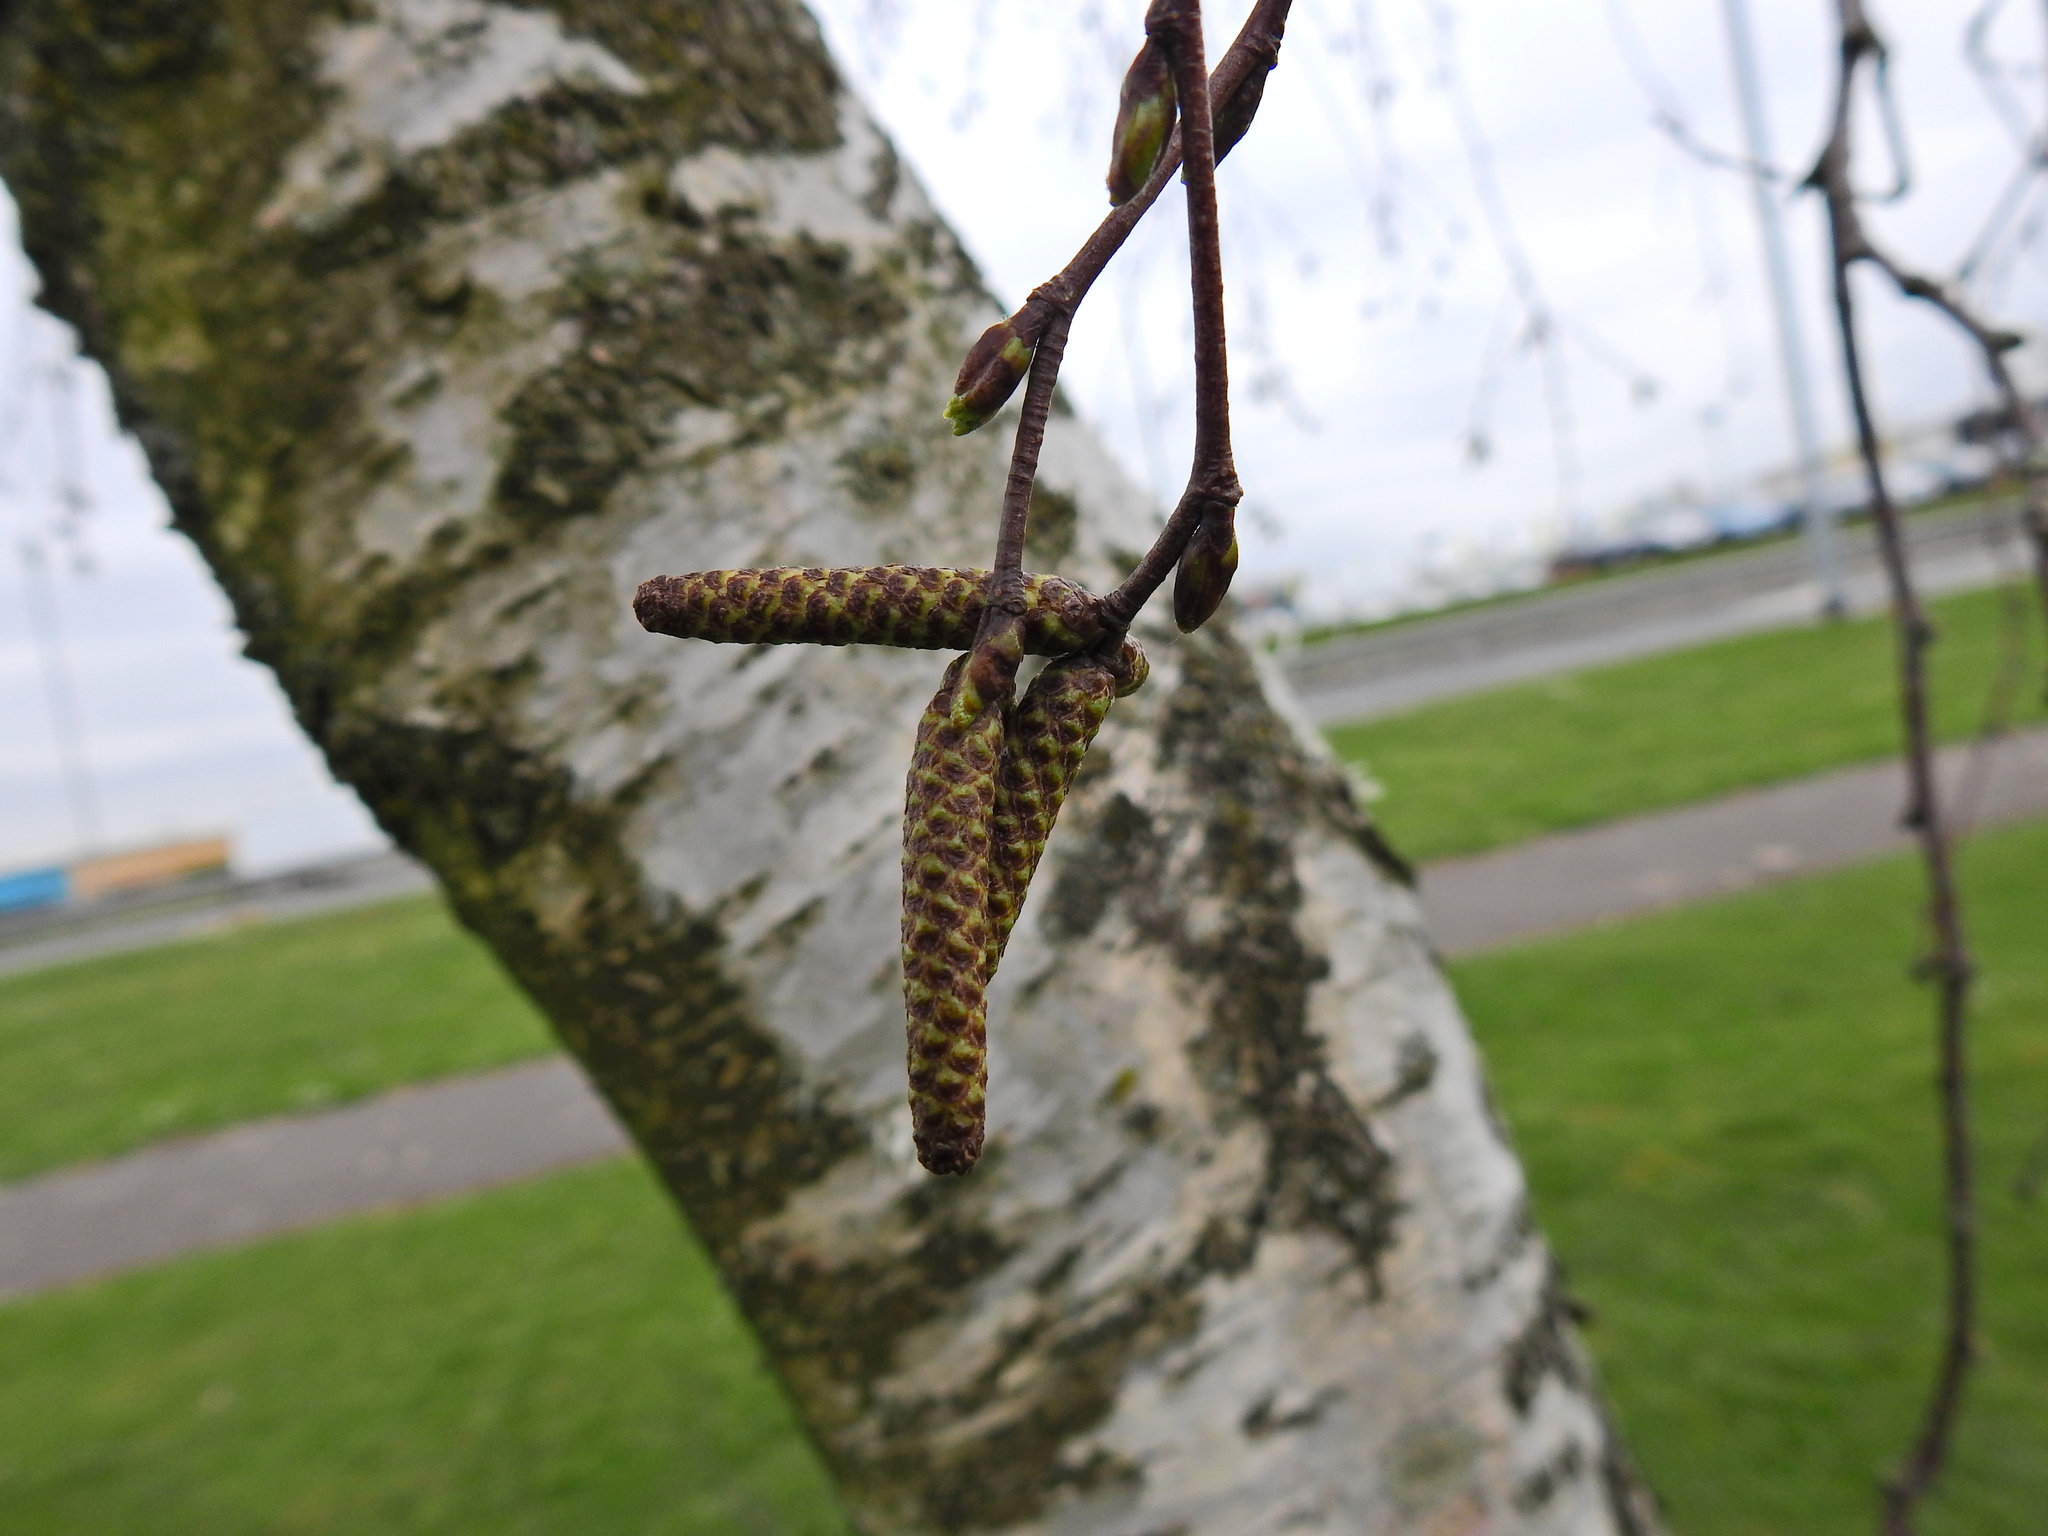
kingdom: Plantae
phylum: Tracheophyta
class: Magnoliopsida
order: Fagales
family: Betulaceae
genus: Betula
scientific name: Betula pendula
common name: Silver birch
